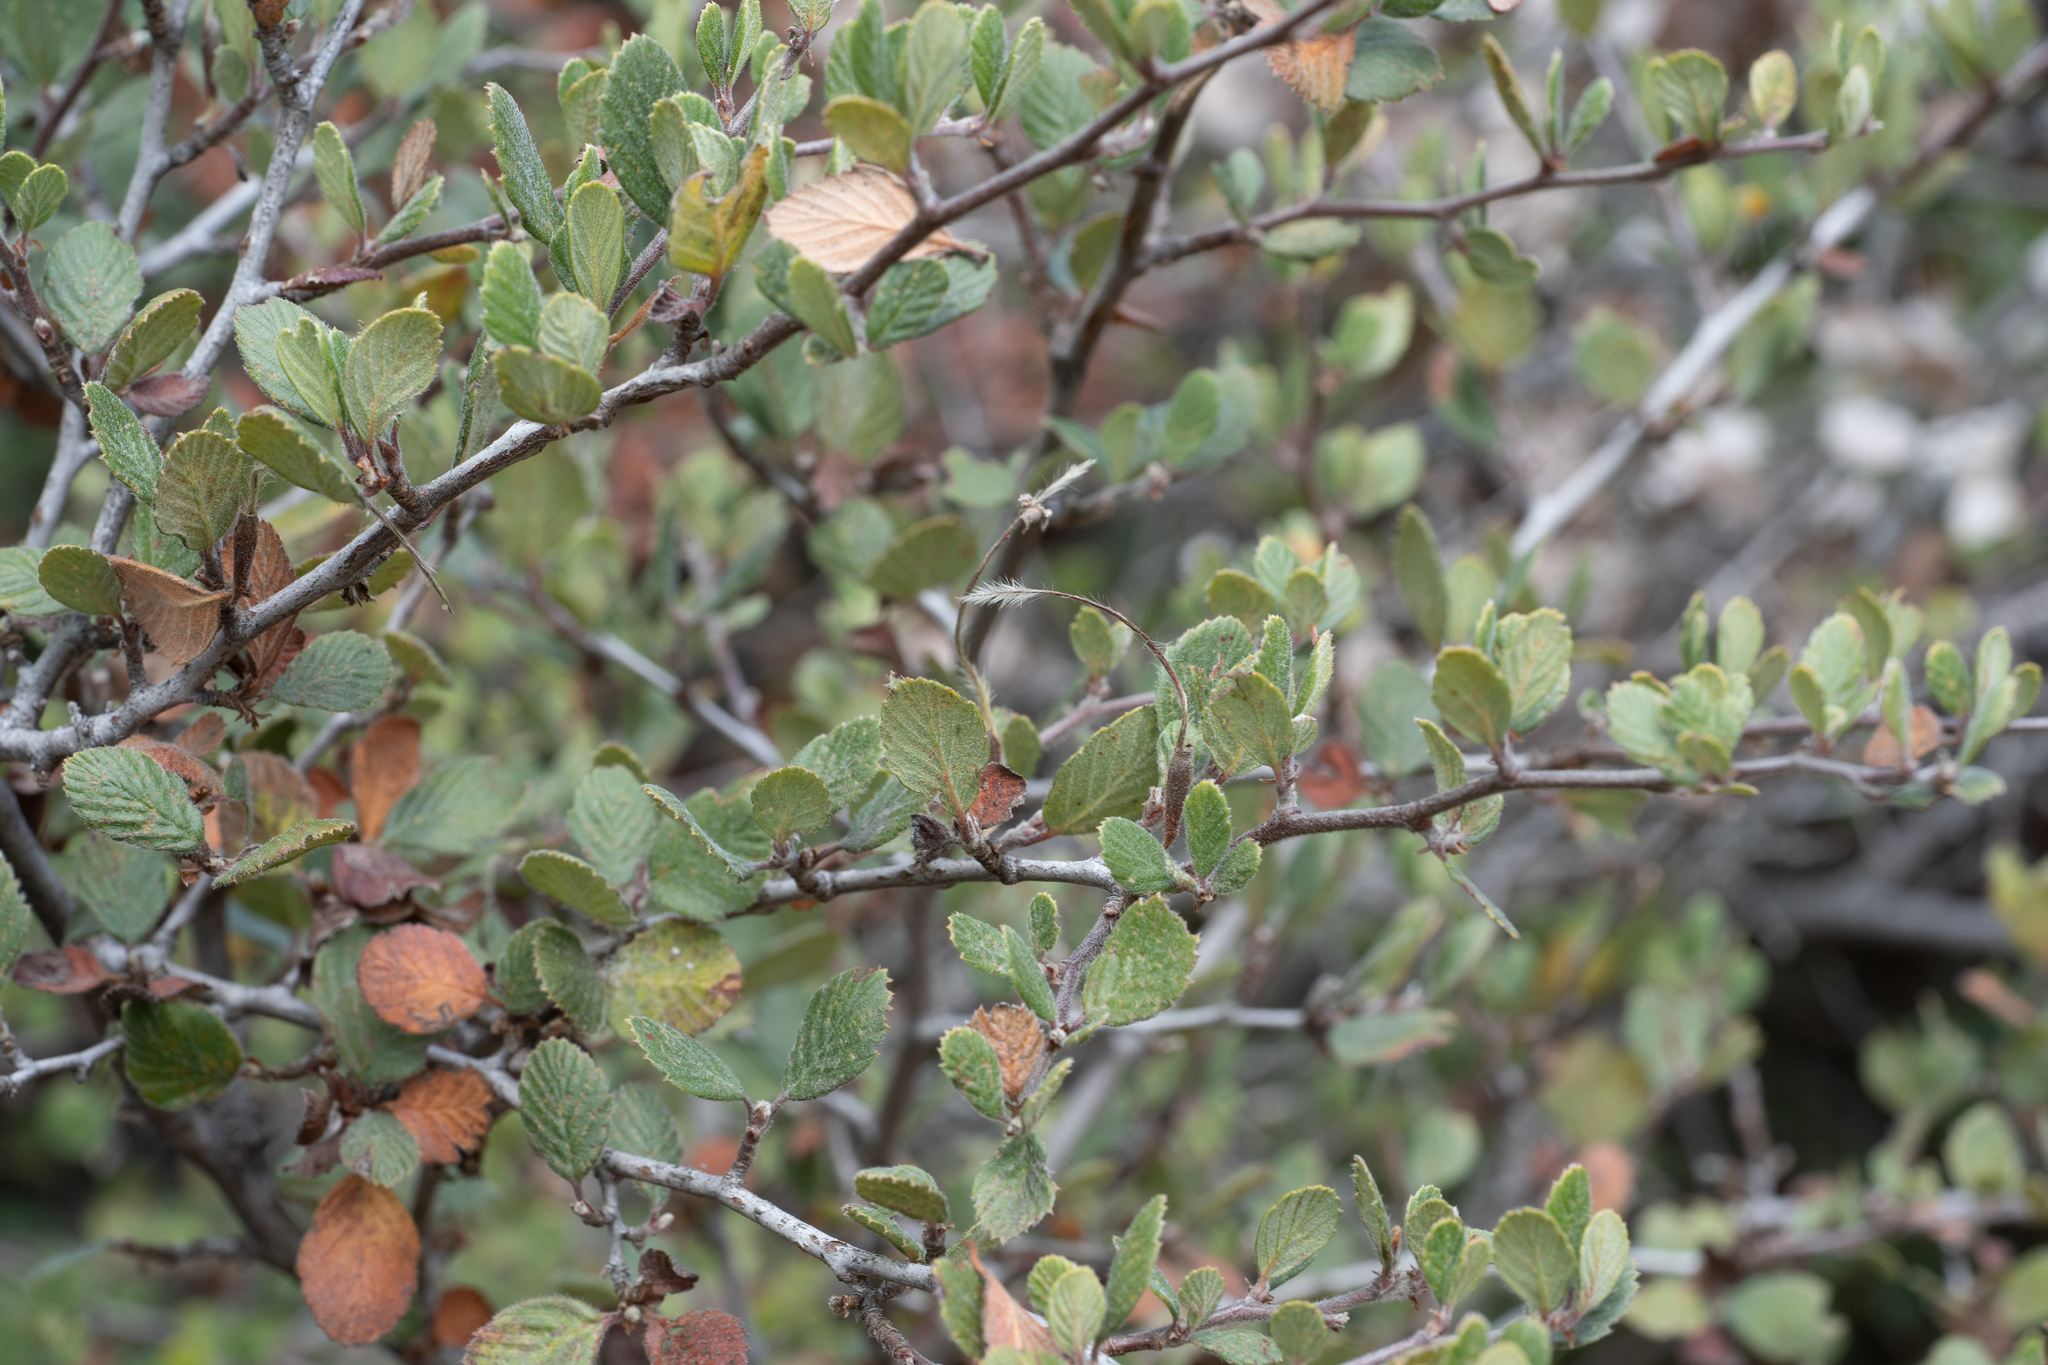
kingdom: Plantae
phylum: Tracheophyta
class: Magnoliopsida
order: Rosales
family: Rosaceae
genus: Cercocarpus
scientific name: Cercocarpus betuloides
